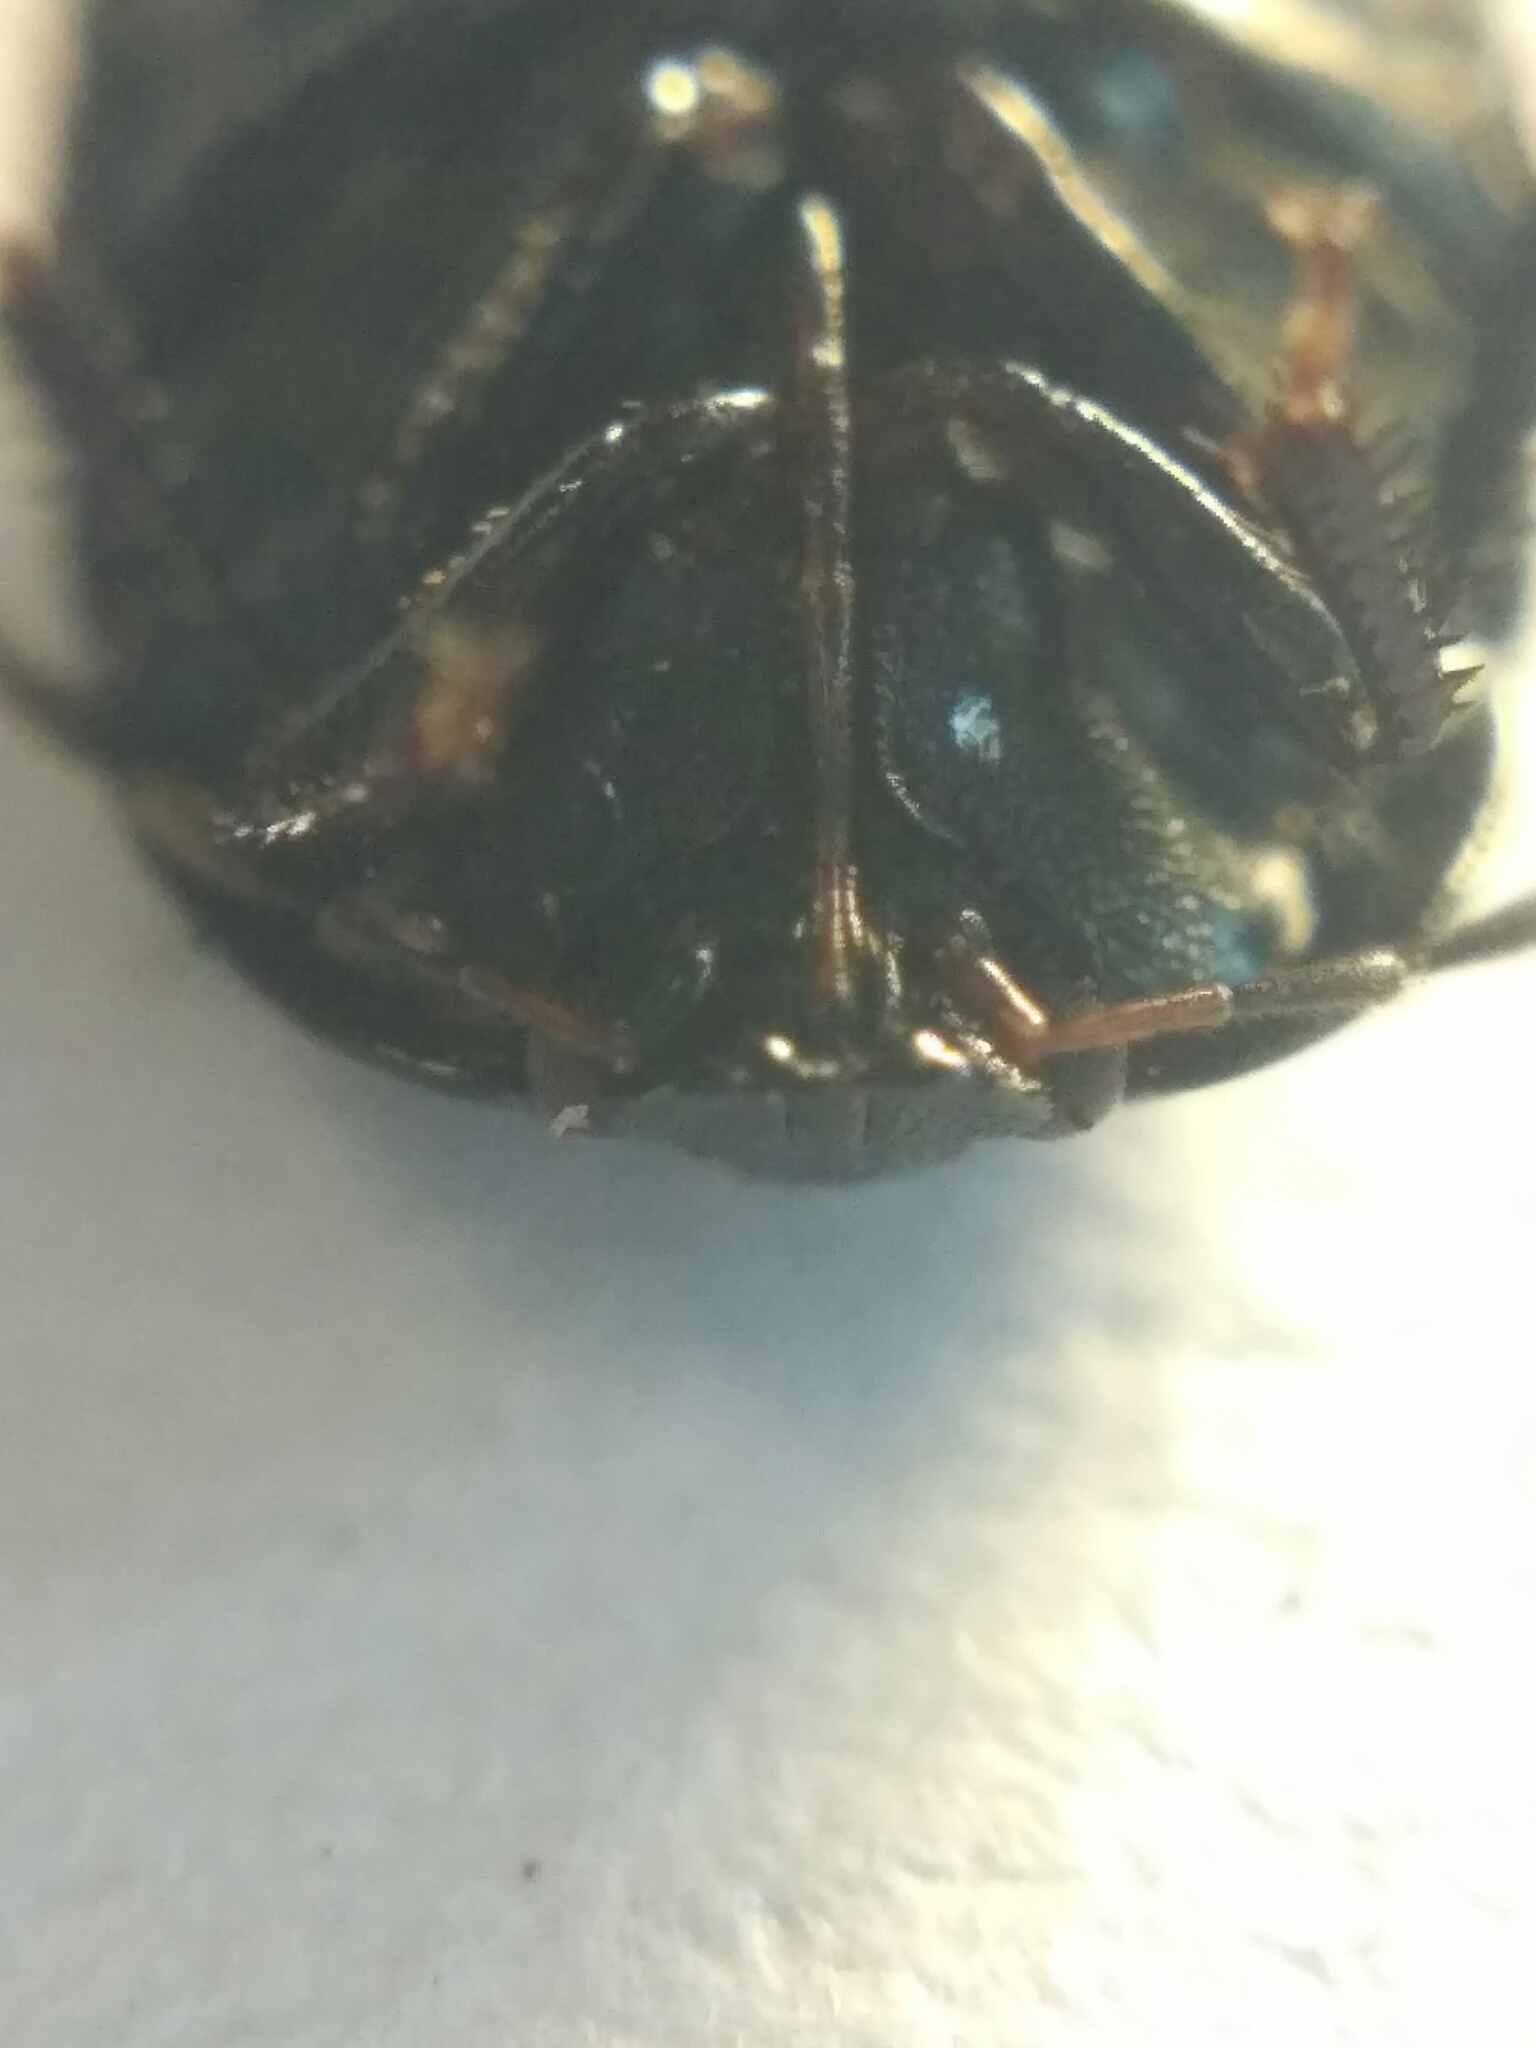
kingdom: Animalia
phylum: Arthropoda
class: Insecta
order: Hemiptera
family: Cydnidae
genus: Sehirus
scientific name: Sehirus luctuosus
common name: Forget-me-not shieldbug
